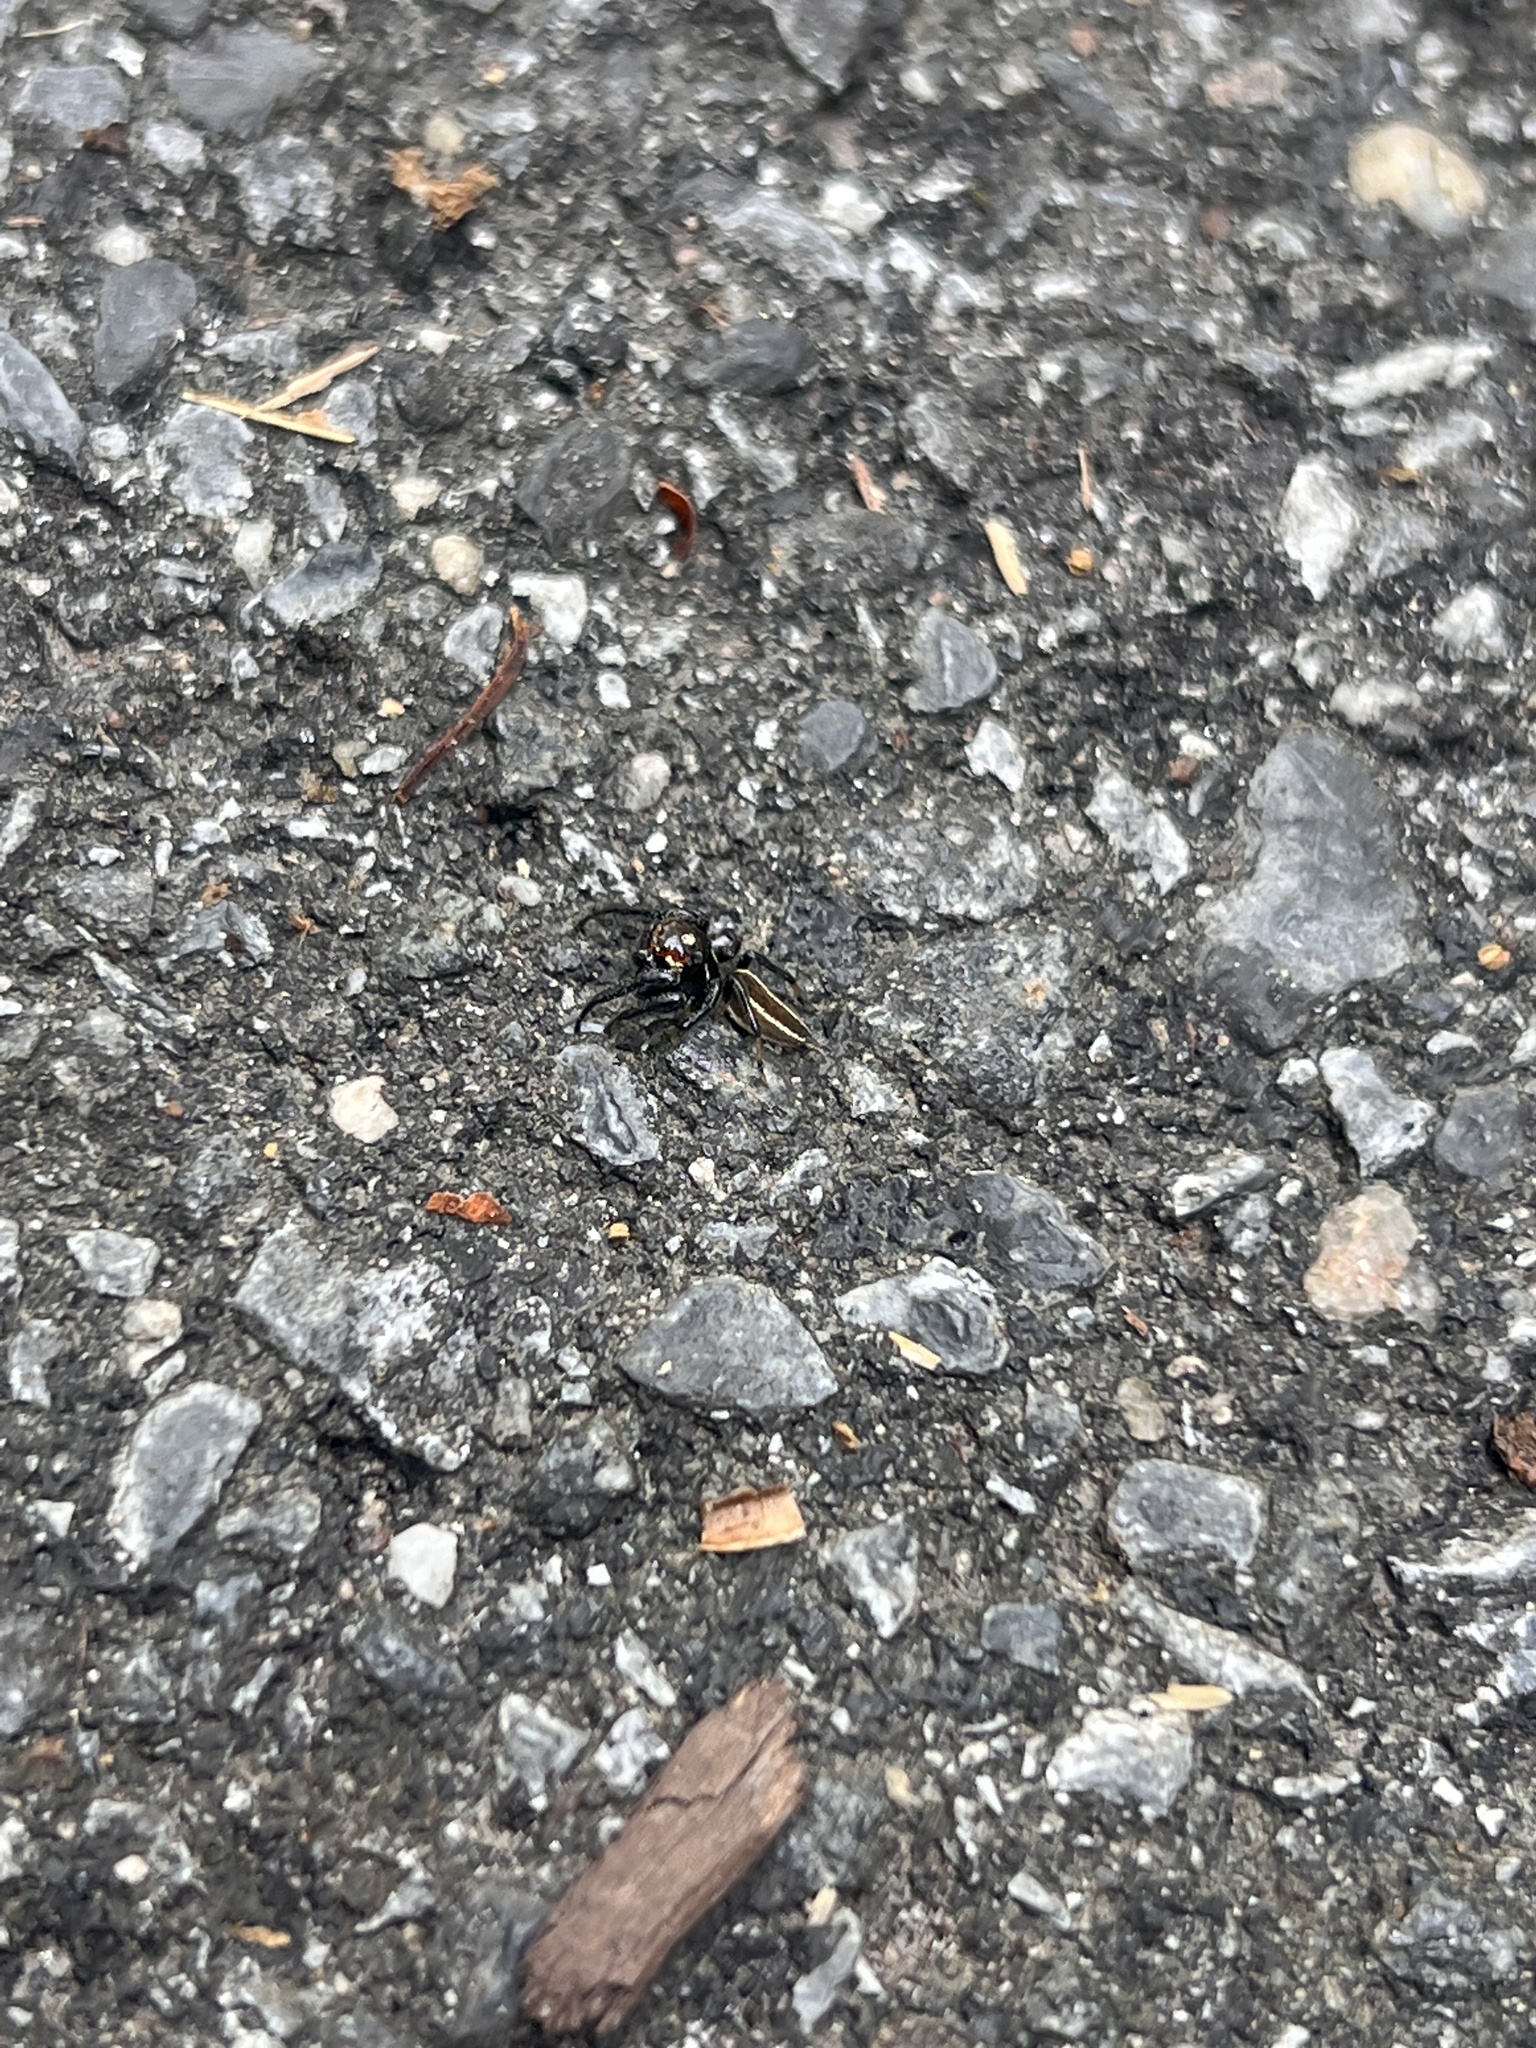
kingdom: Animalia
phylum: Arthropoda
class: Arachnida
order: Araneae
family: Salticidae
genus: Colonus
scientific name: Colonus sylvanus
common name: Jumping spiders
